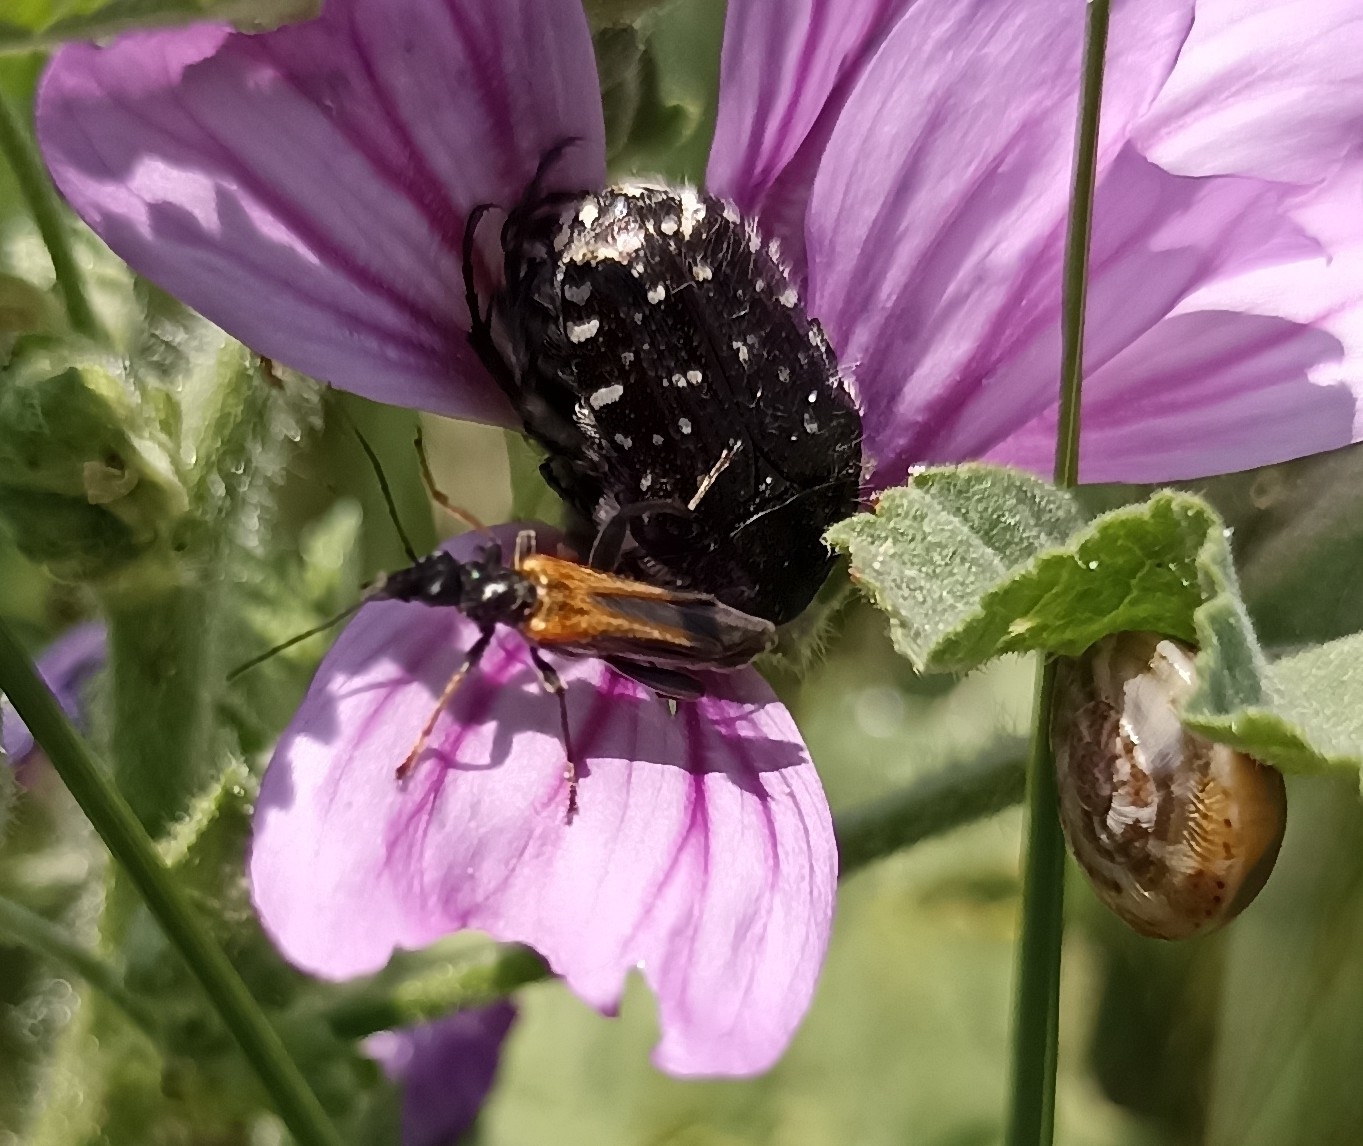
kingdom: Animalia
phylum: Arthropoda
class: Insecta
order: Coleoptera
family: Oedemeridae
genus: Oedemera
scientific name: Oedemera simplex
